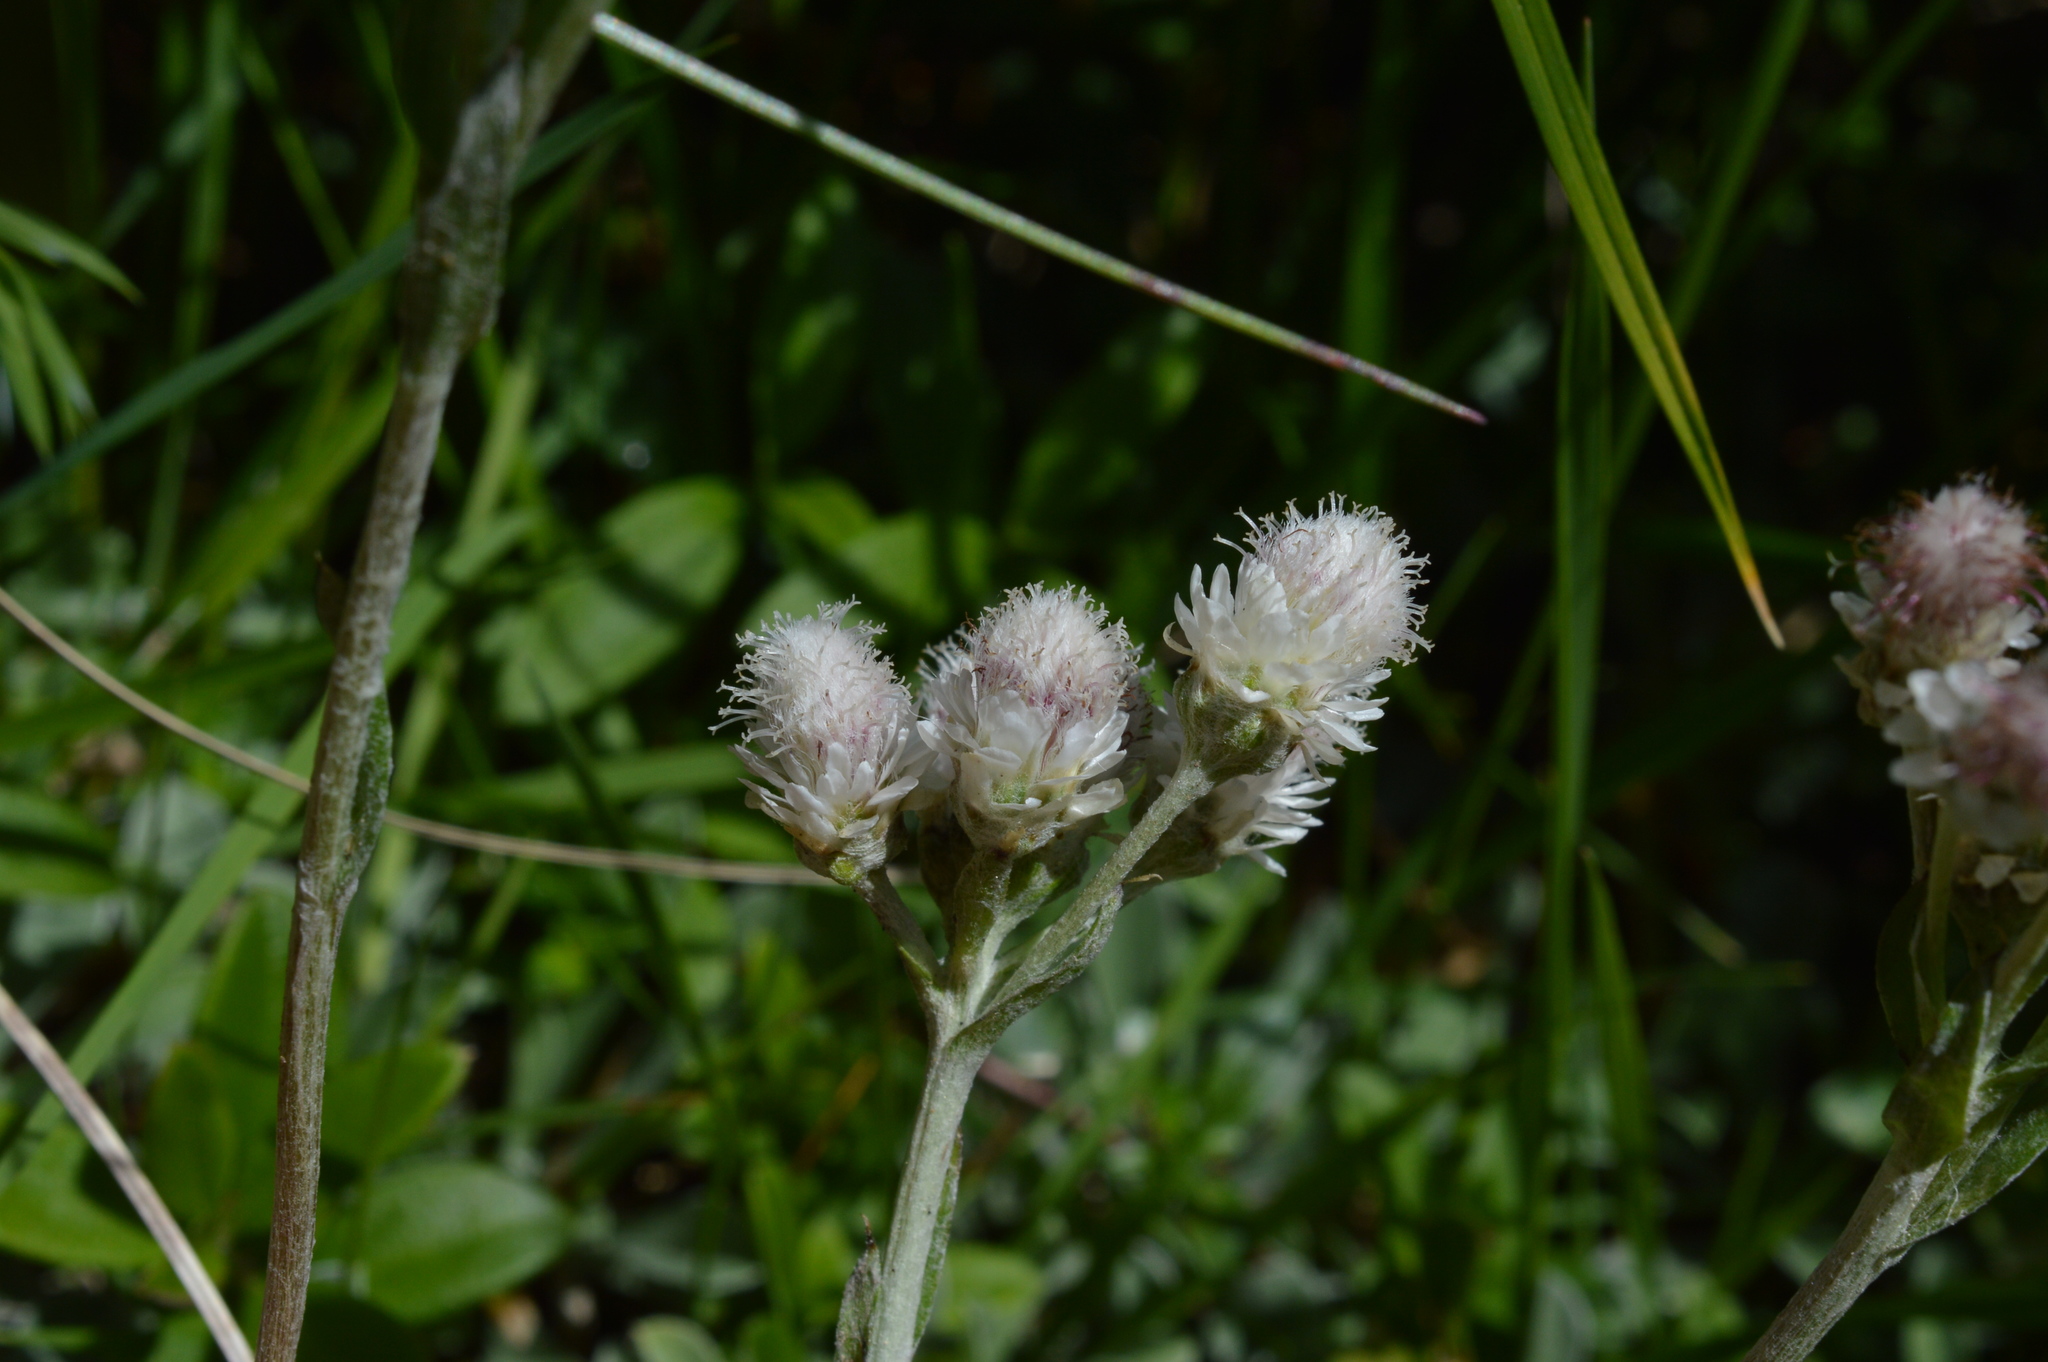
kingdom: Plantae
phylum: Tracheophyta
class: Magnoliopsida
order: Asterales
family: Asteraceae
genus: Antennaria
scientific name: Antennaria dioica
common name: Mountain everlasting
